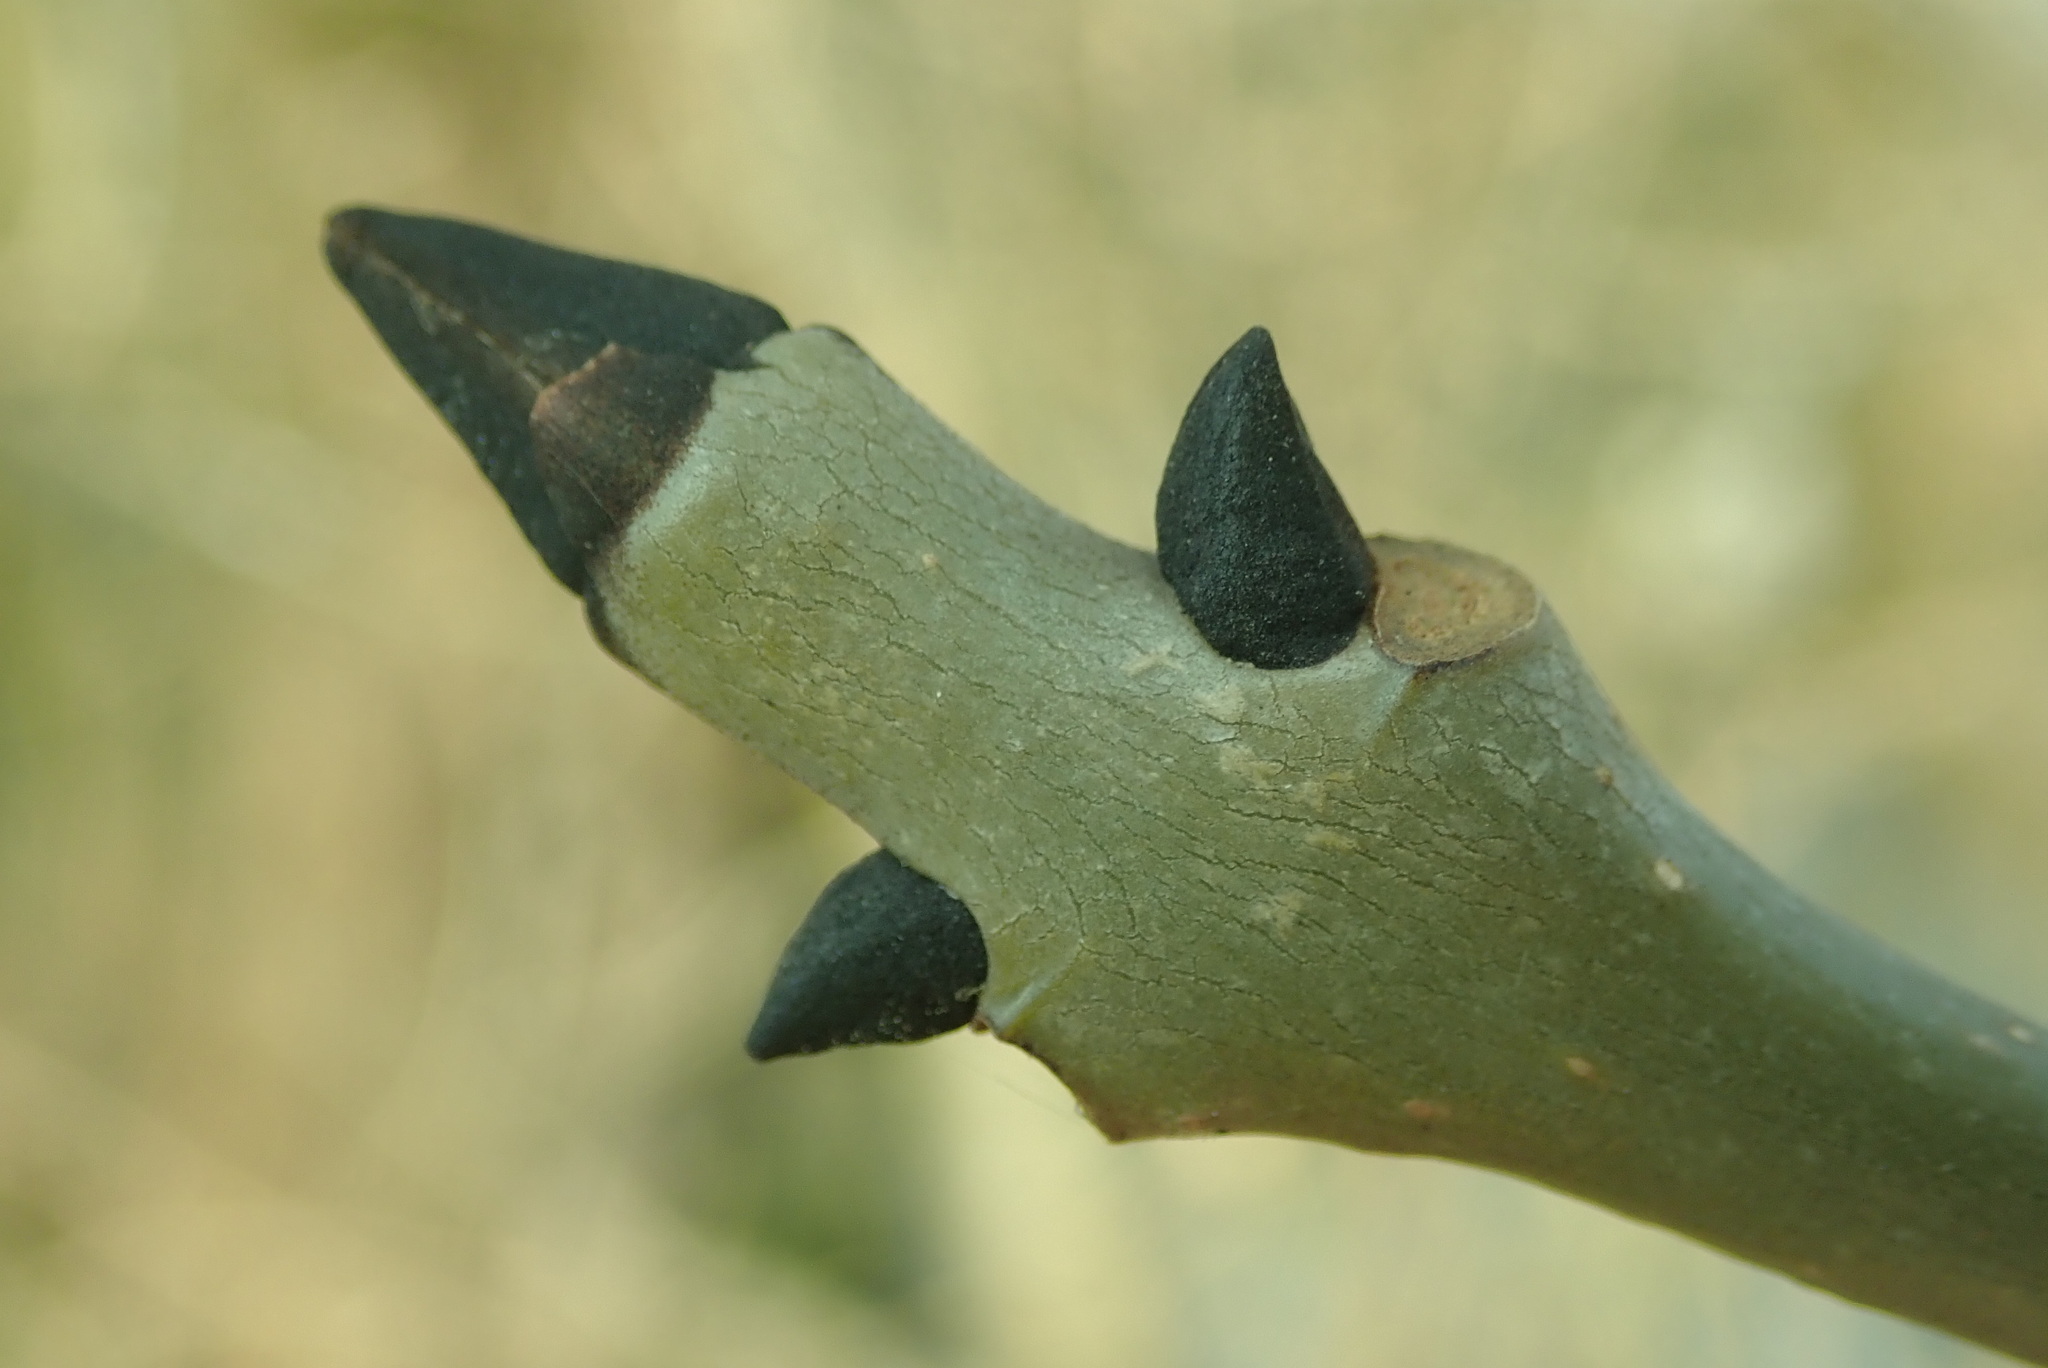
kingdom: Plantae
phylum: Tracheophyta
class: Magnoliopsida
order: Lamiales
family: Oleaceae
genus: Fraxinus
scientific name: Fraxinus excelsior
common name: European ash
